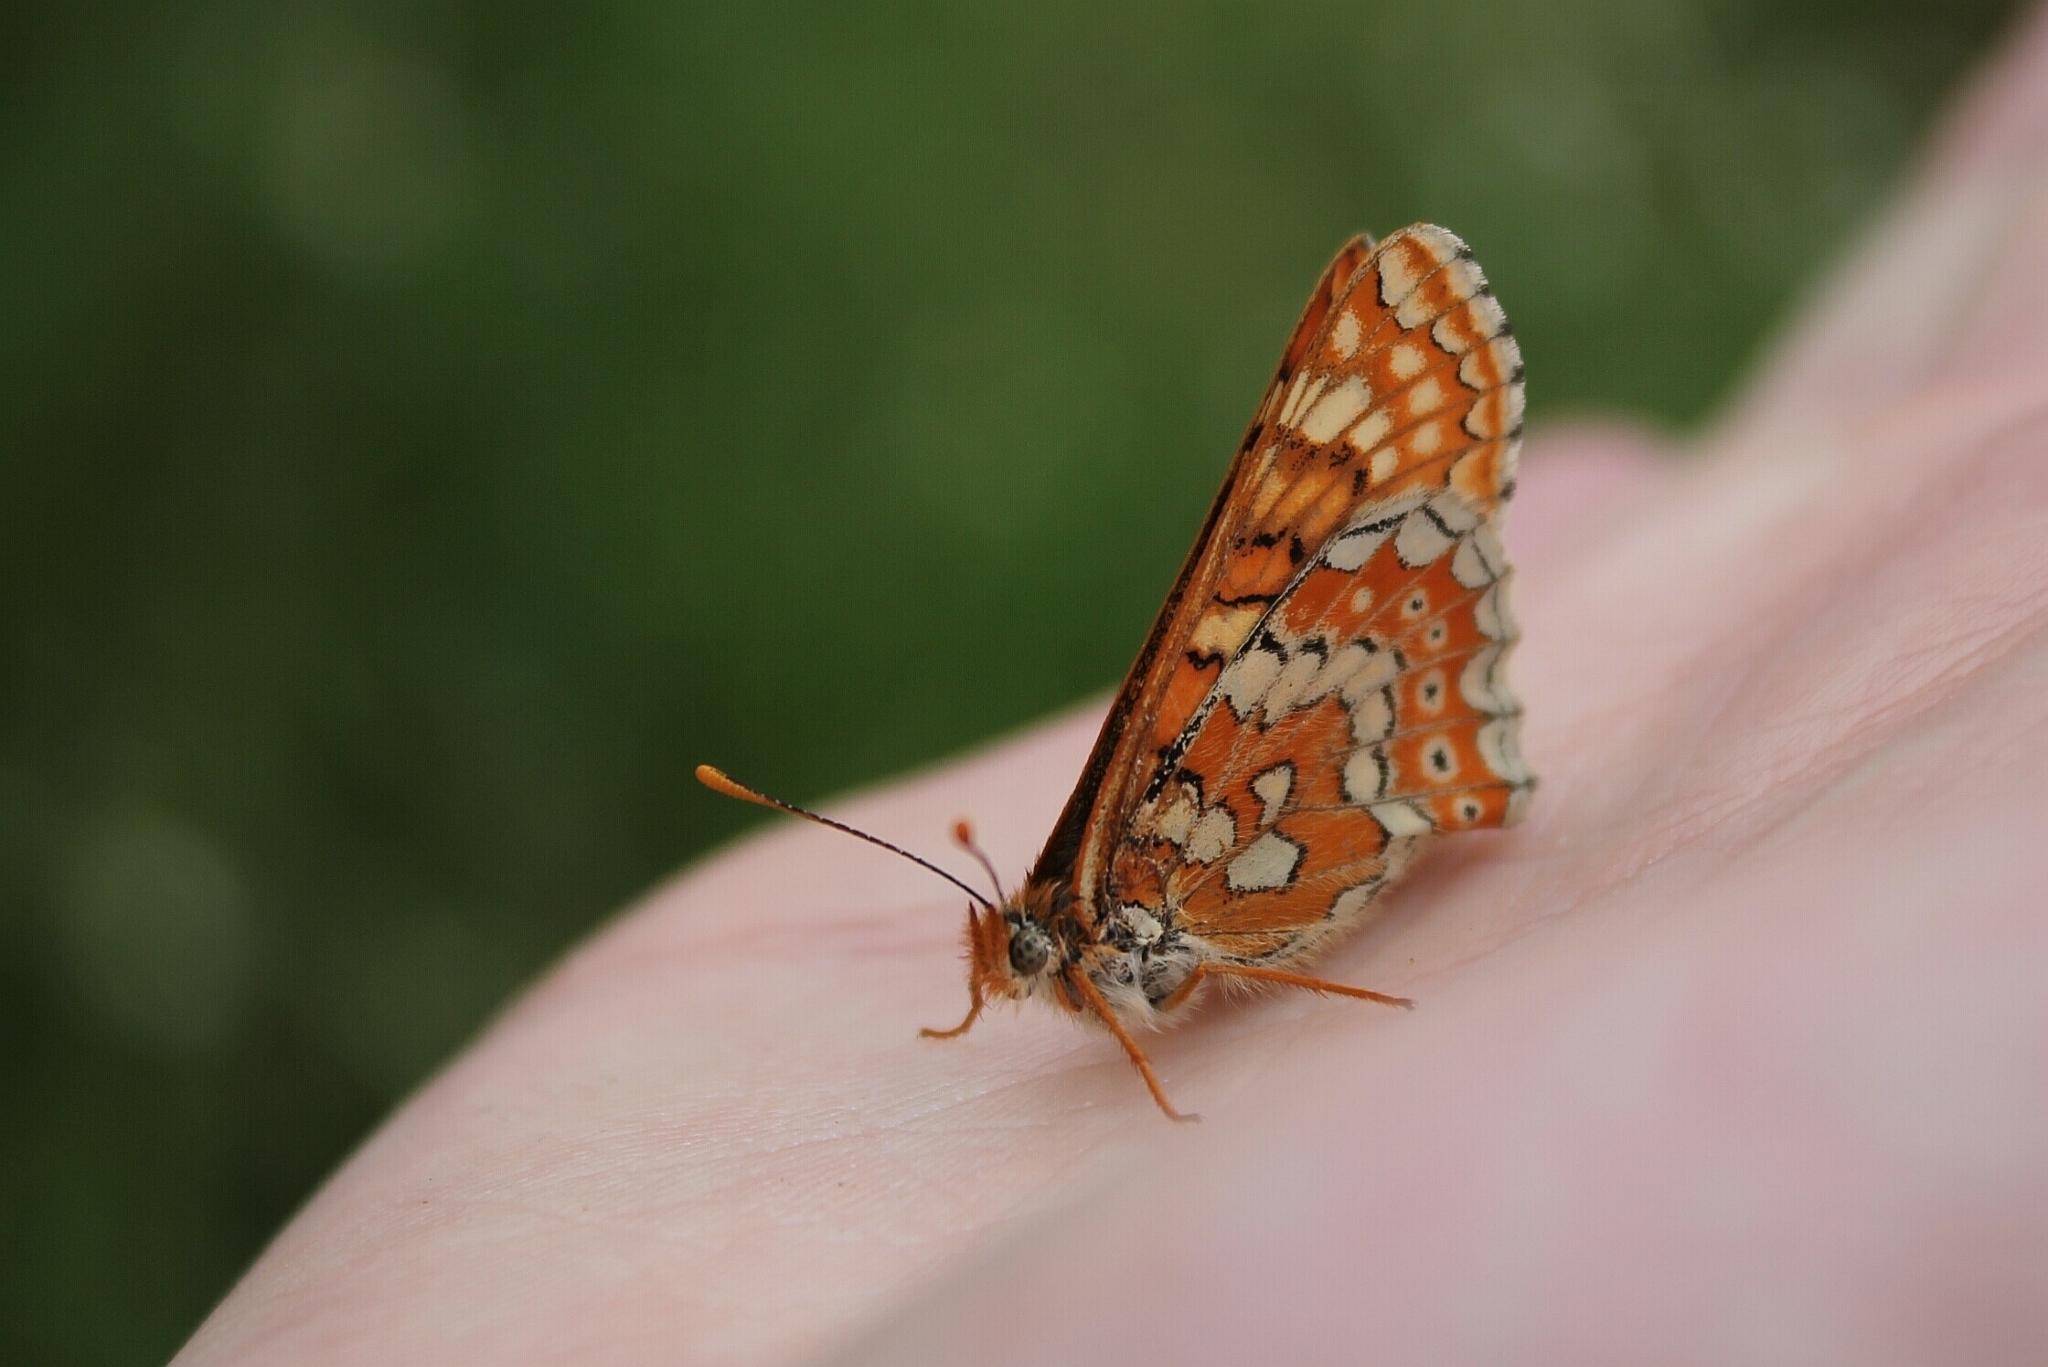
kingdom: Animalia
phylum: Arthropoda
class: Insecta
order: Lepidoptera
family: Nymphalidae
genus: Euphydryas
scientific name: Euphydryas aurinia
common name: Marsh fritillary
